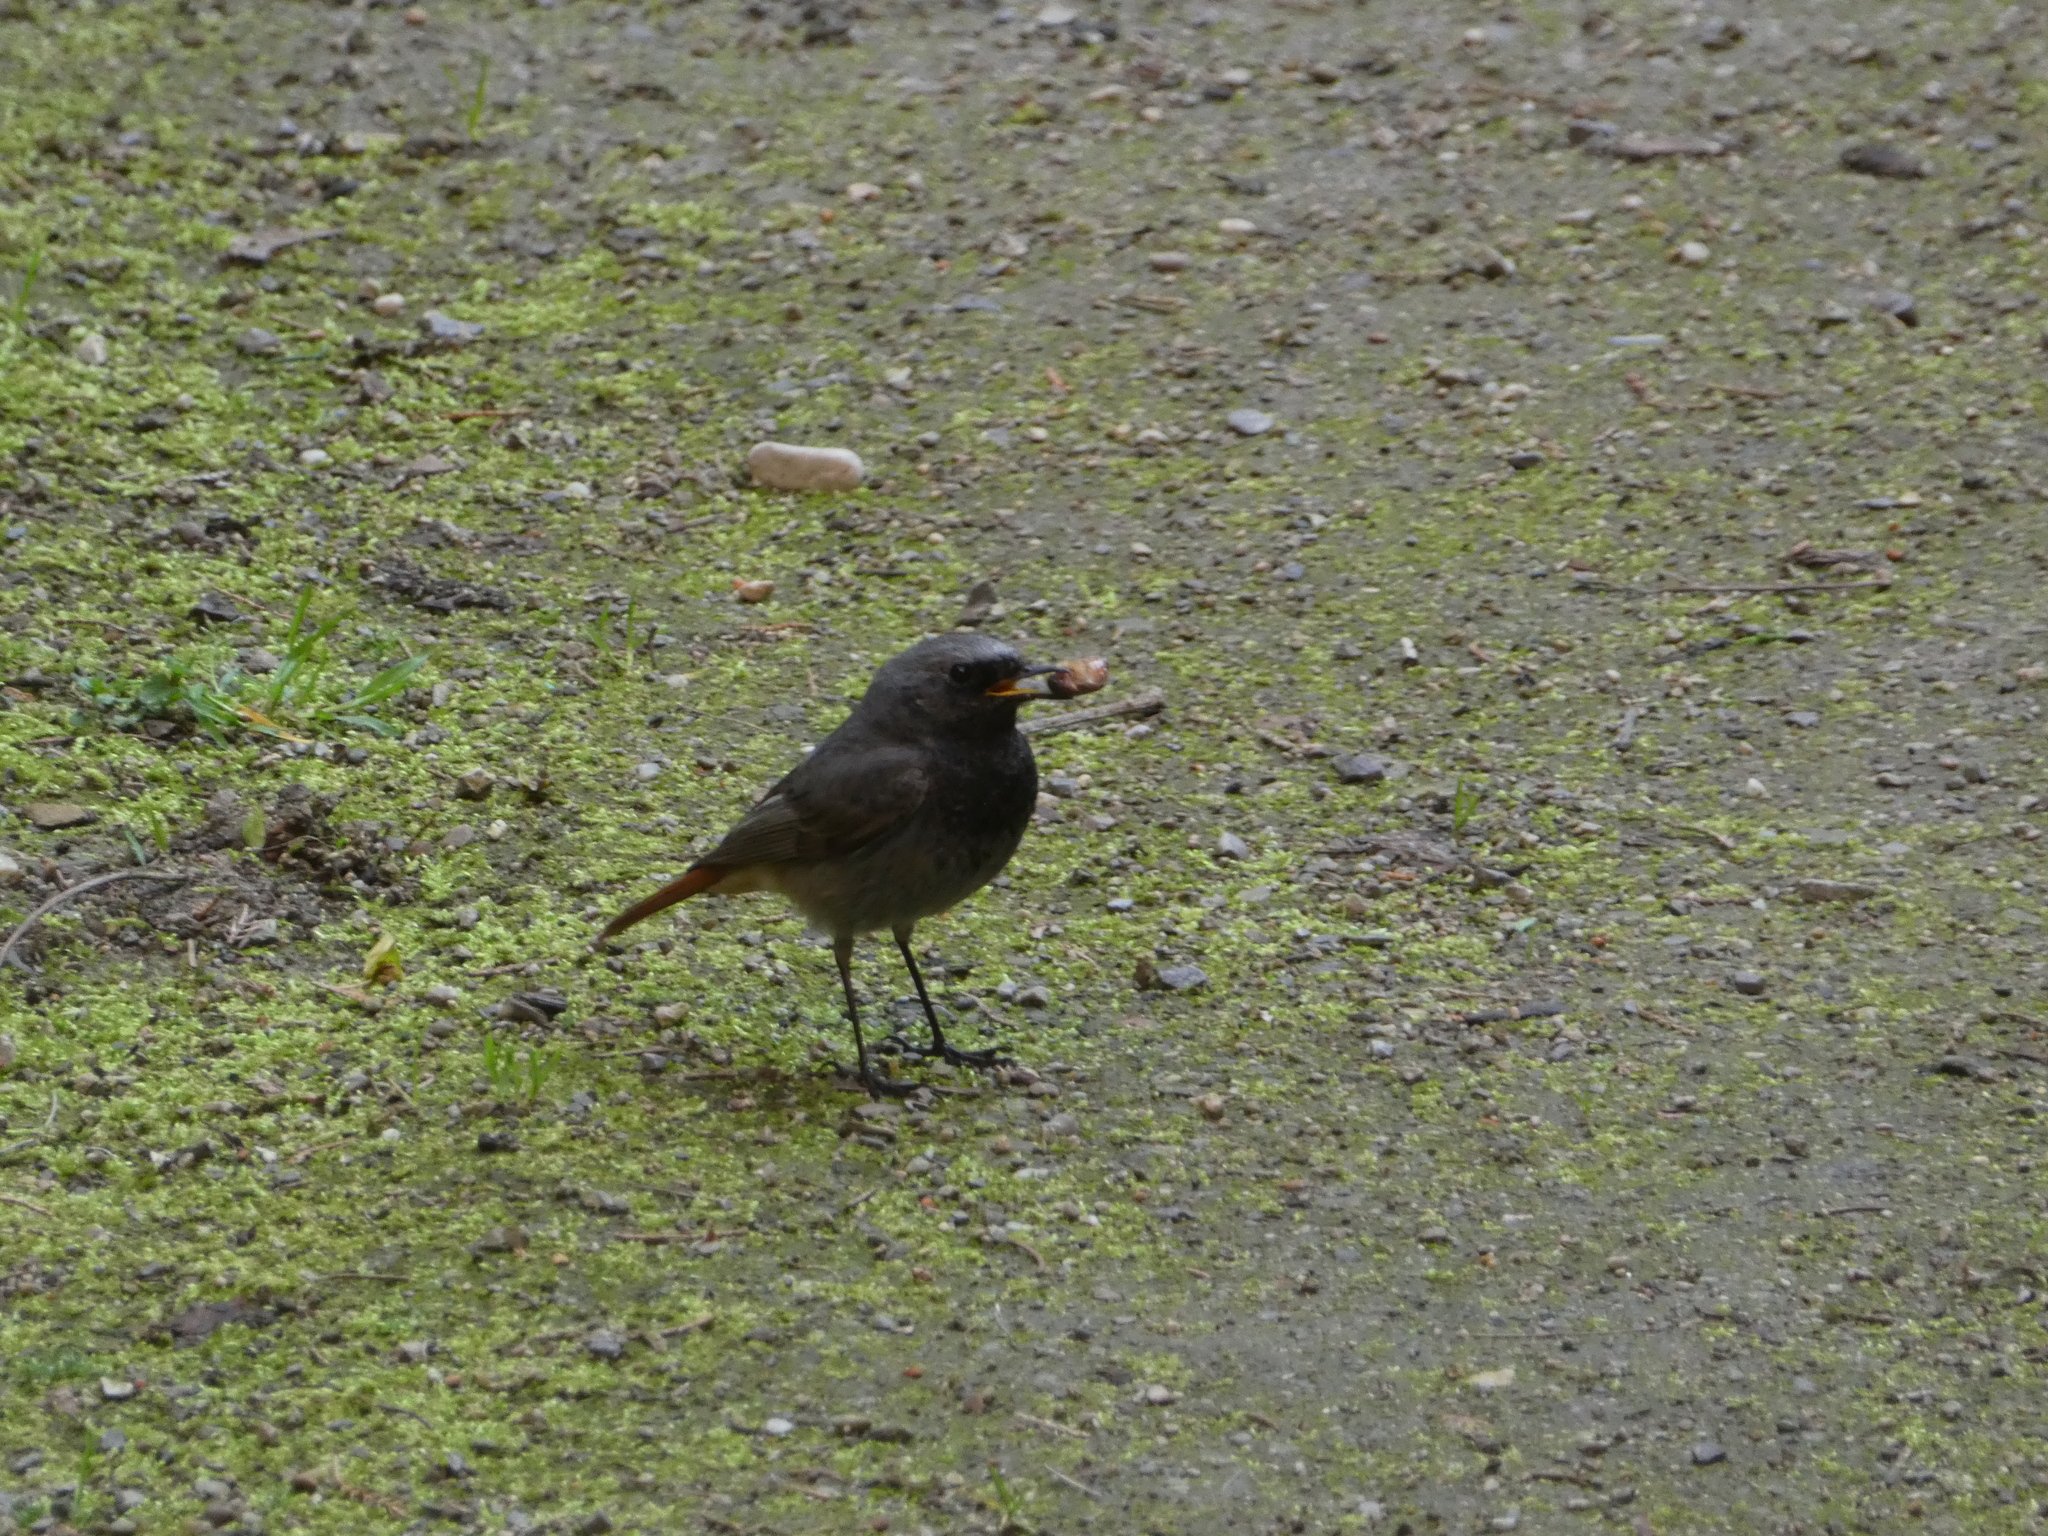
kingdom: Animalia
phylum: Chordata
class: Aves
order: Passeriformes
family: Muscicapidae
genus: Phoenicurus
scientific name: Phoenicurus ochruros
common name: Black redstart
